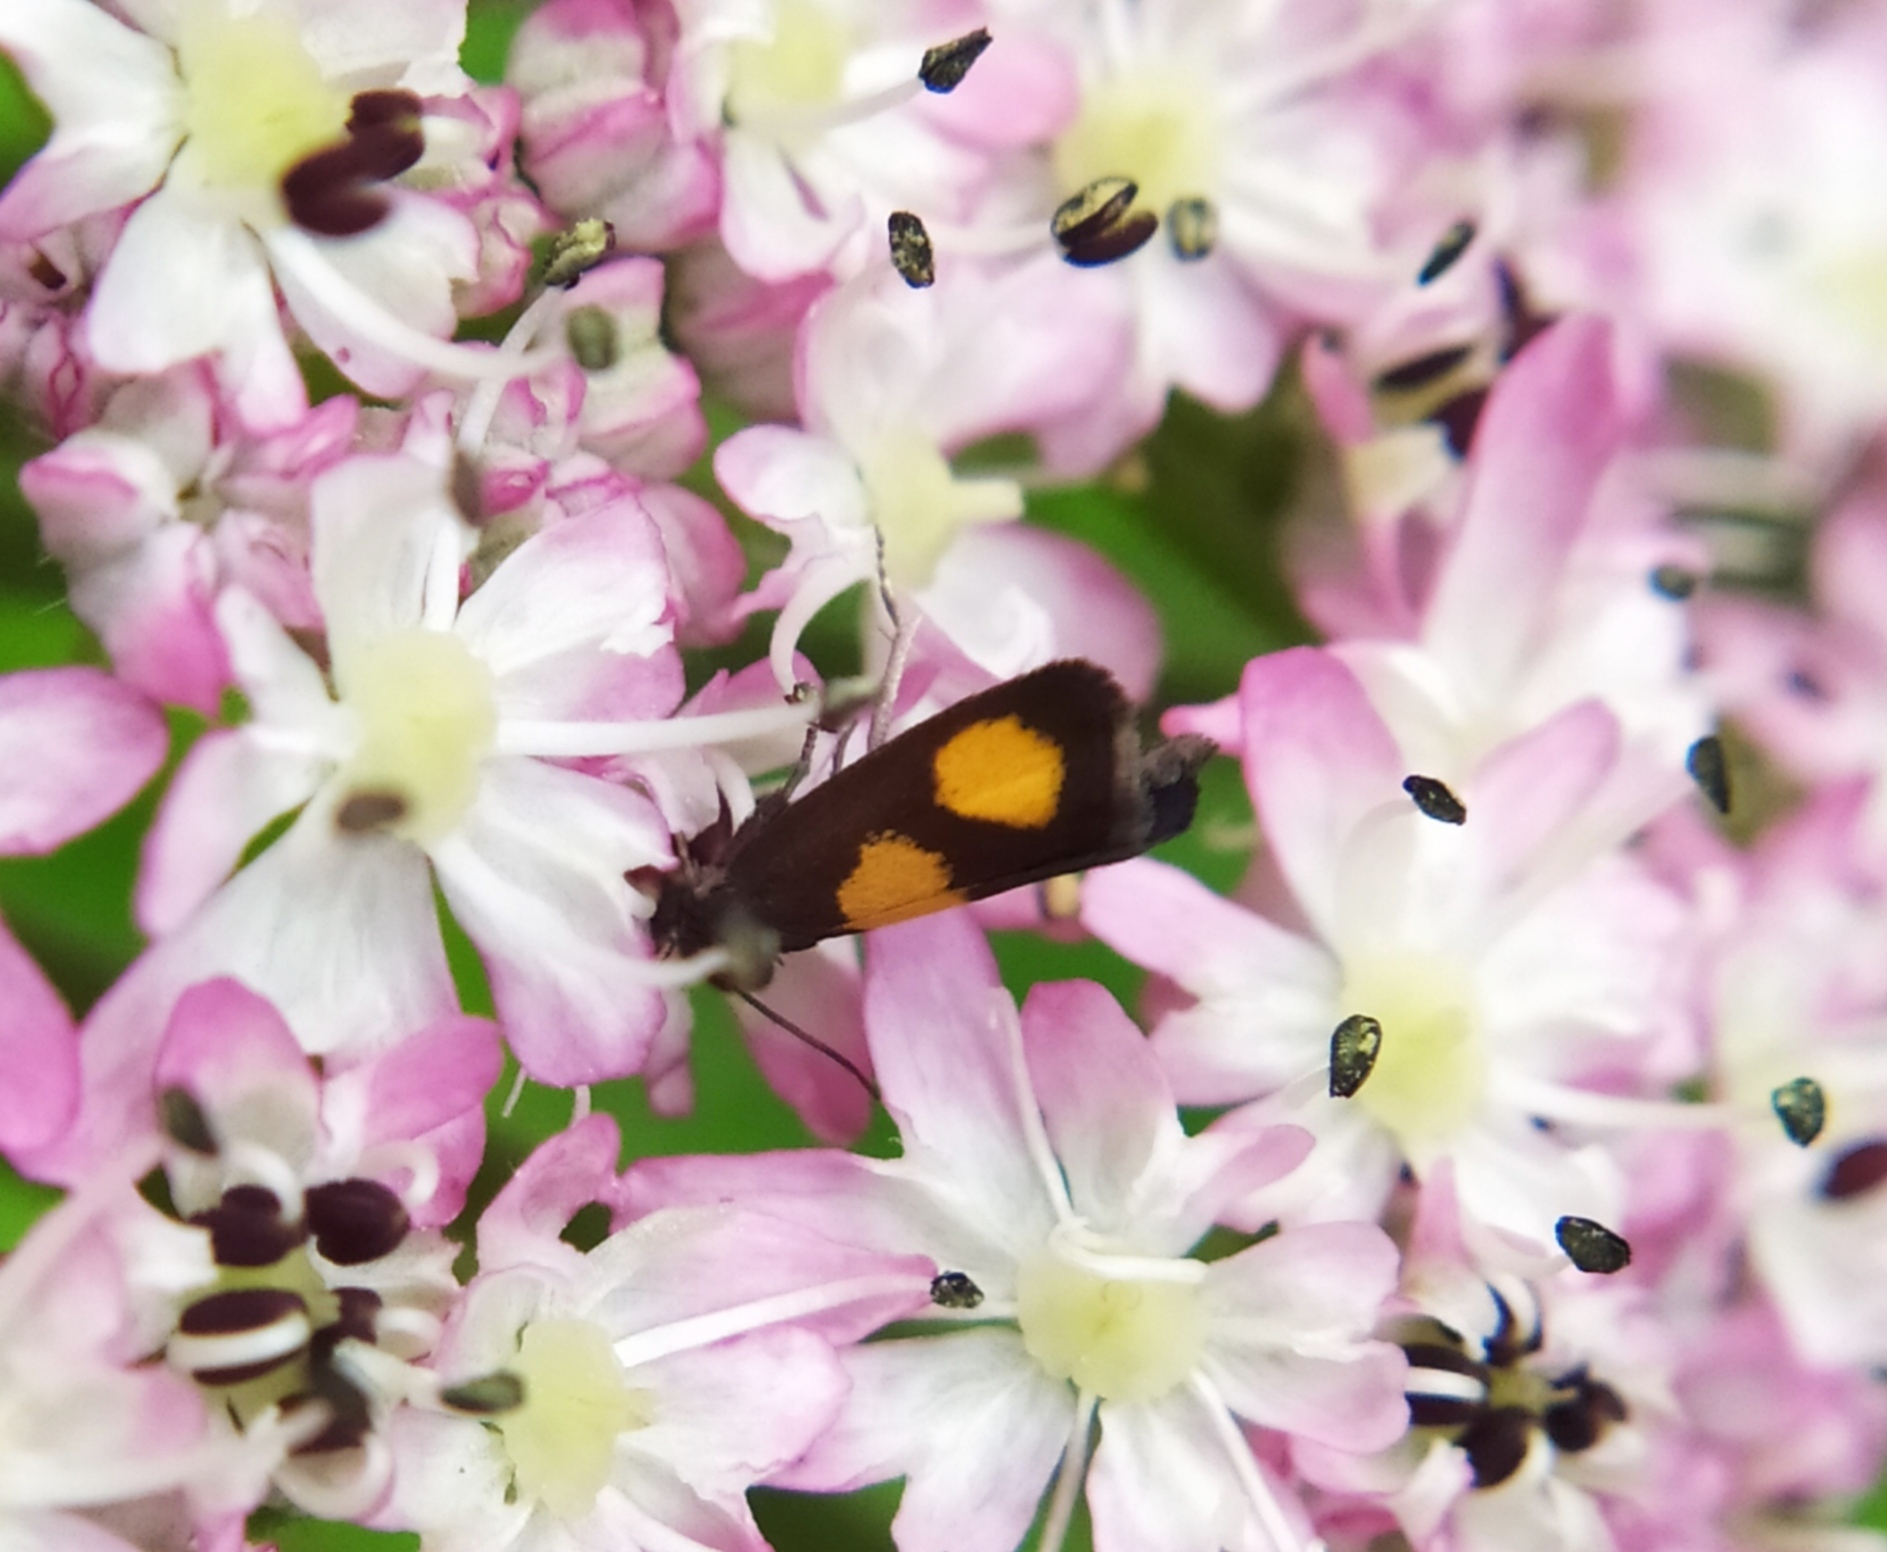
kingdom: Animalia
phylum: Arthropoda
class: Insecta
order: Lepidoptera
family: Tortricidae
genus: Pammene
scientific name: Pammene aurana
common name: Orange-spot piercer
